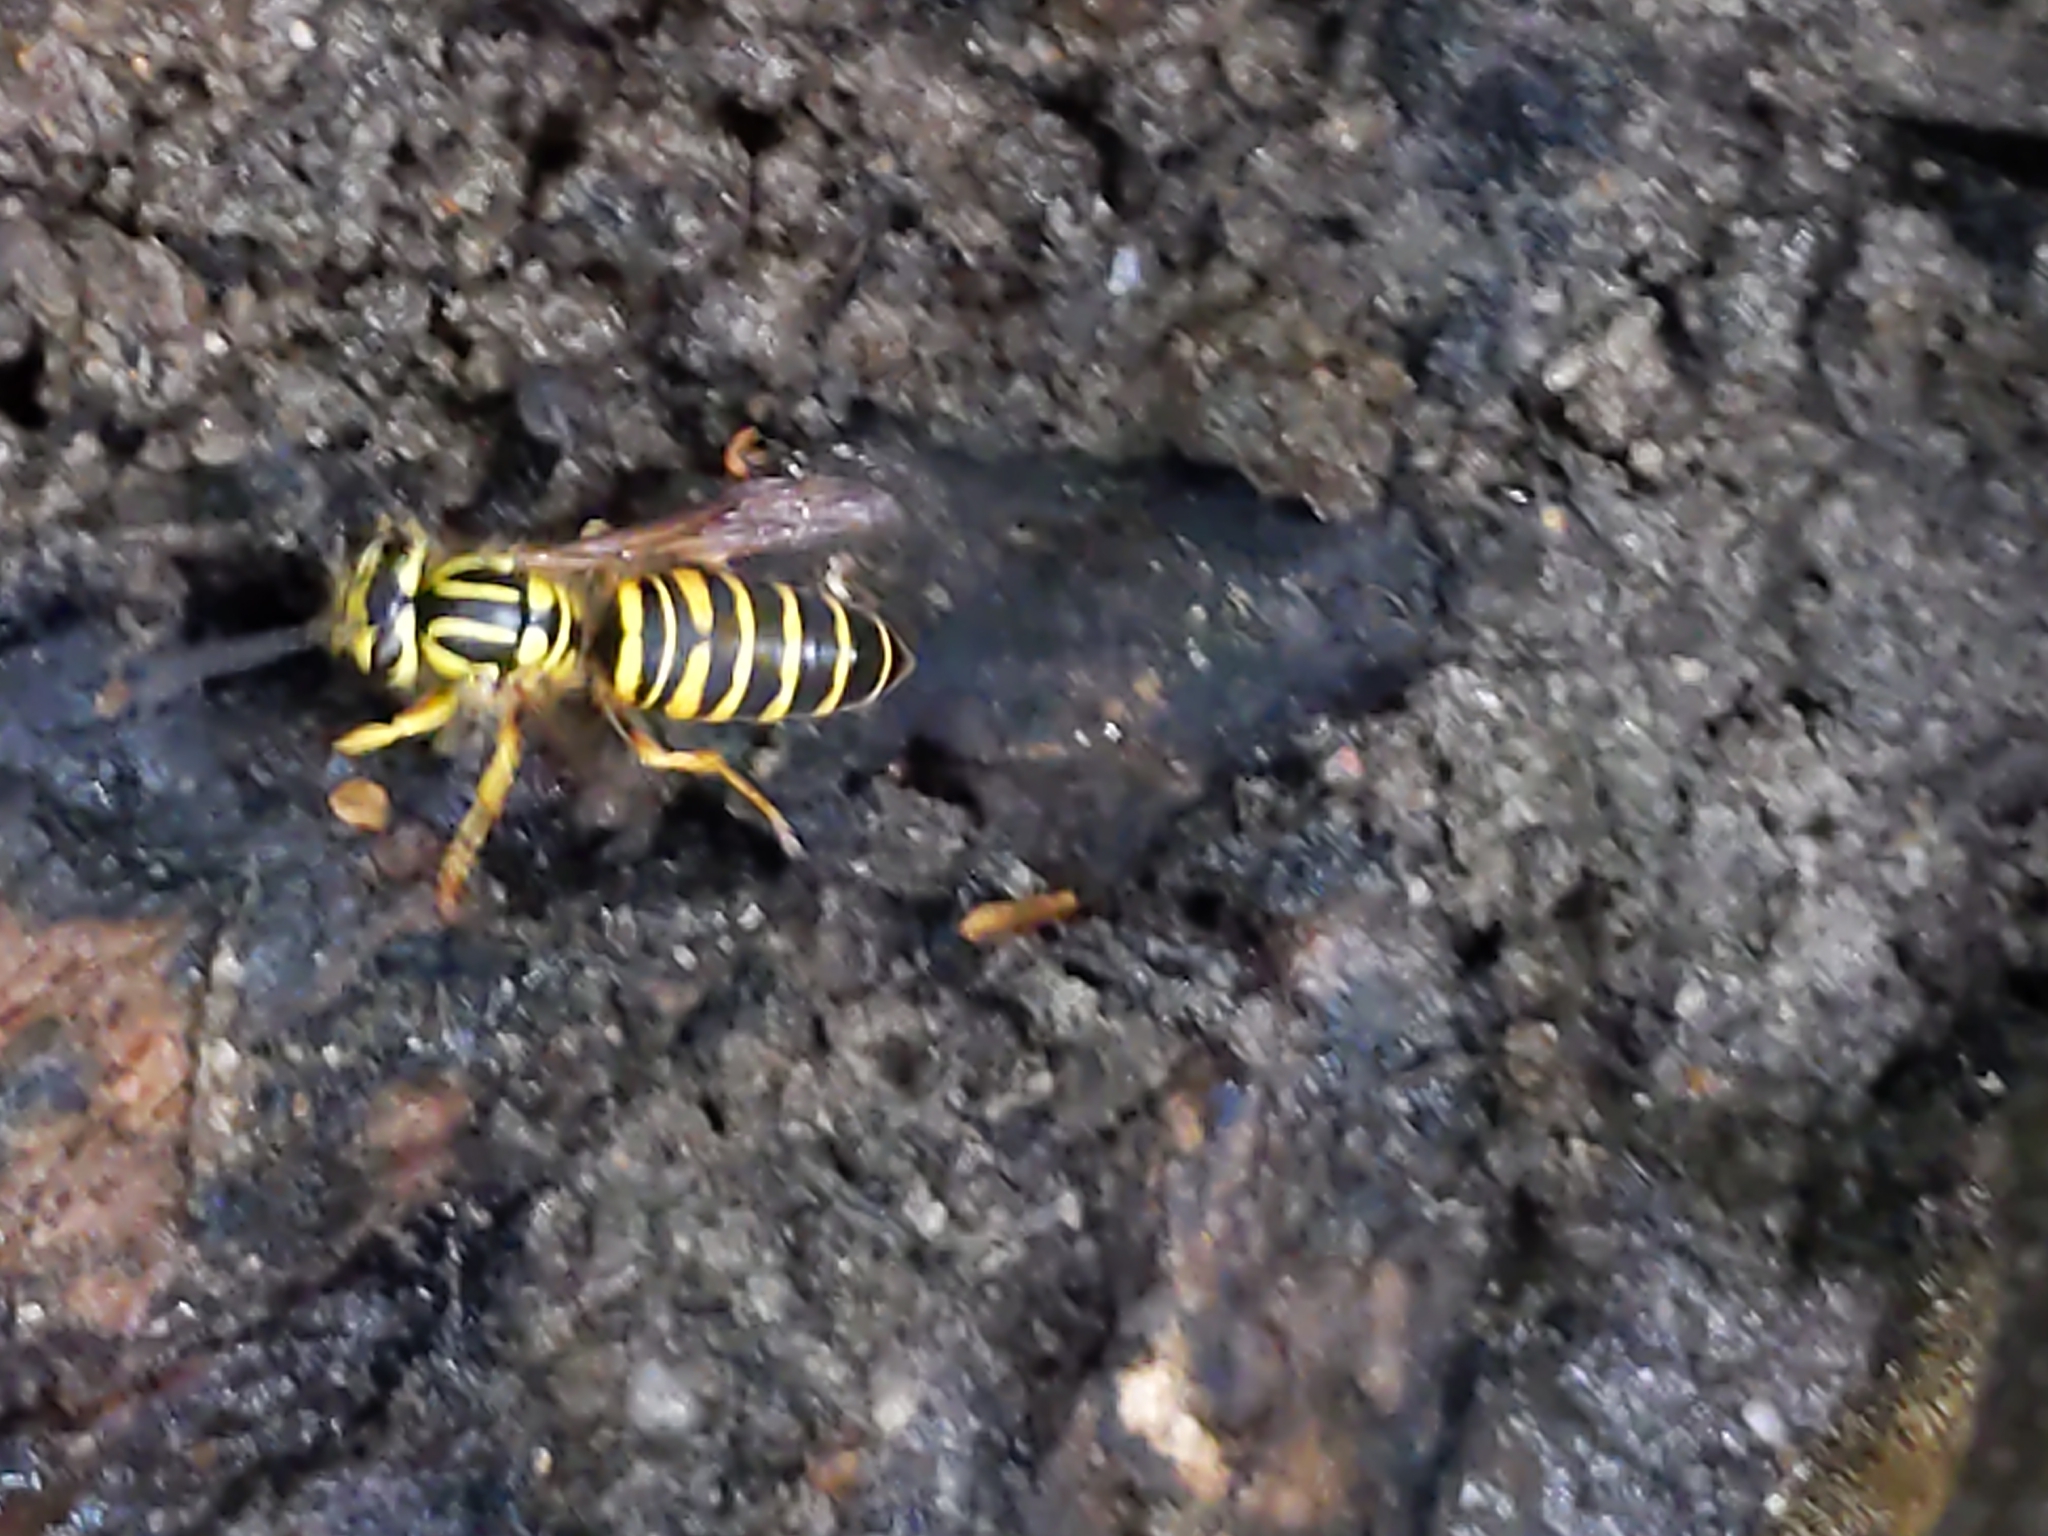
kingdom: Animalia
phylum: Arthropoda
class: Insecta
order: Hymenoptera
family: Vespidae
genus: Vespula
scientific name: Vespula squamosa
